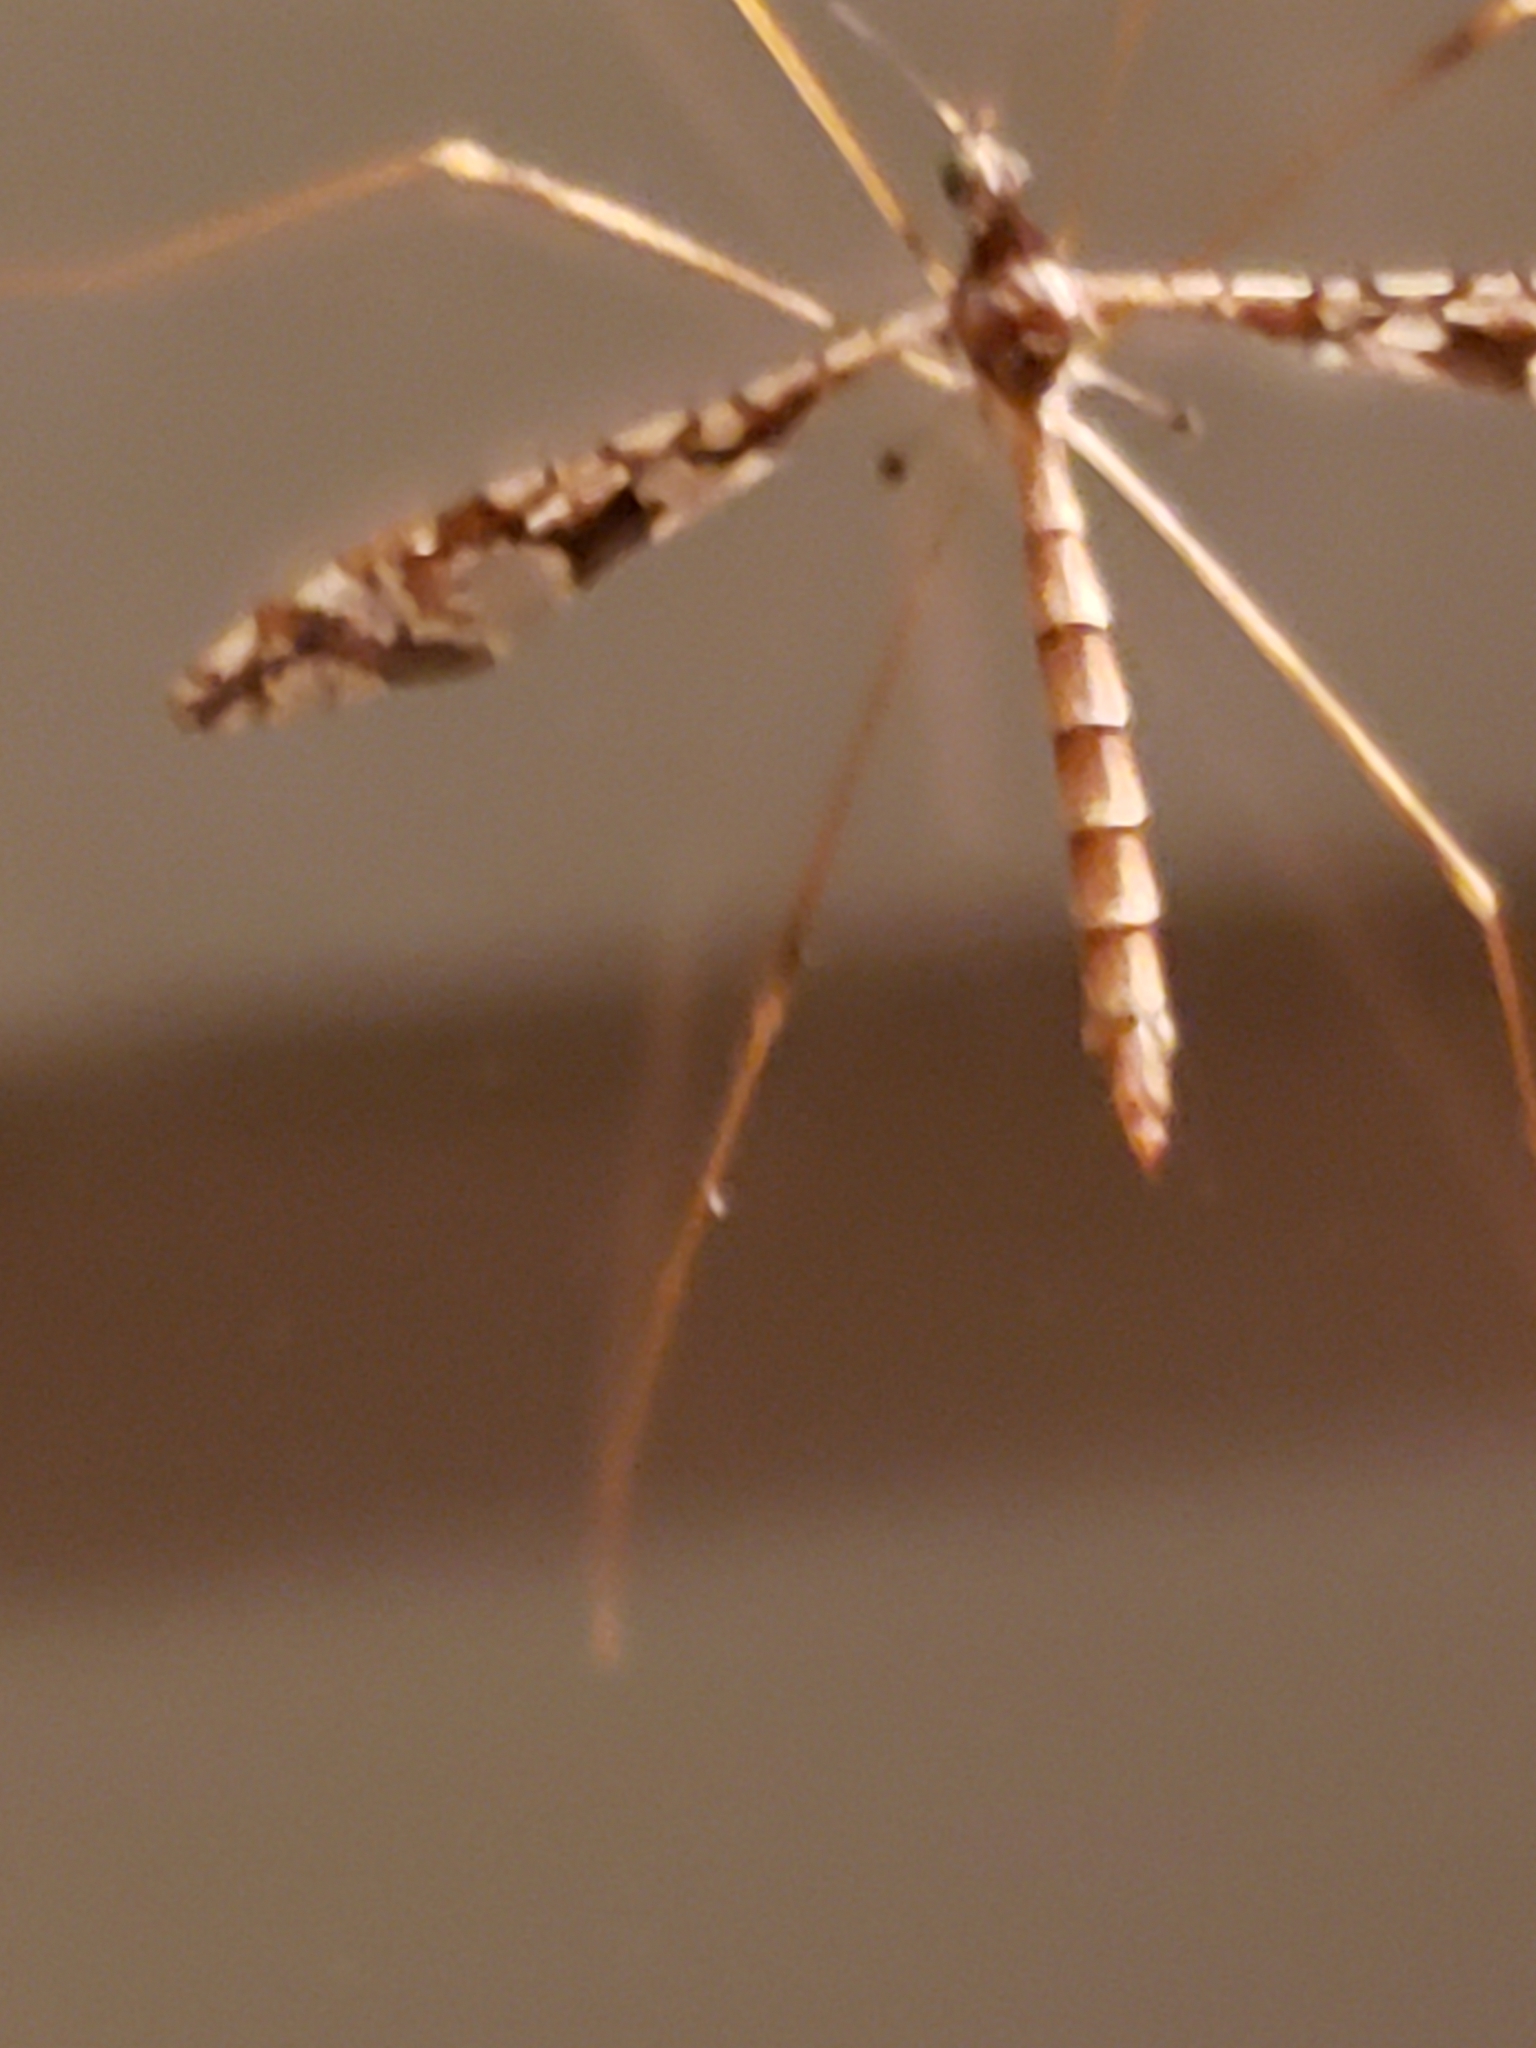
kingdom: Animalia
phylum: Arthropoda
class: Insecta
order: Diptera
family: Limoniidae
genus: Epiphragma
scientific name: Epiphragma solatrix
